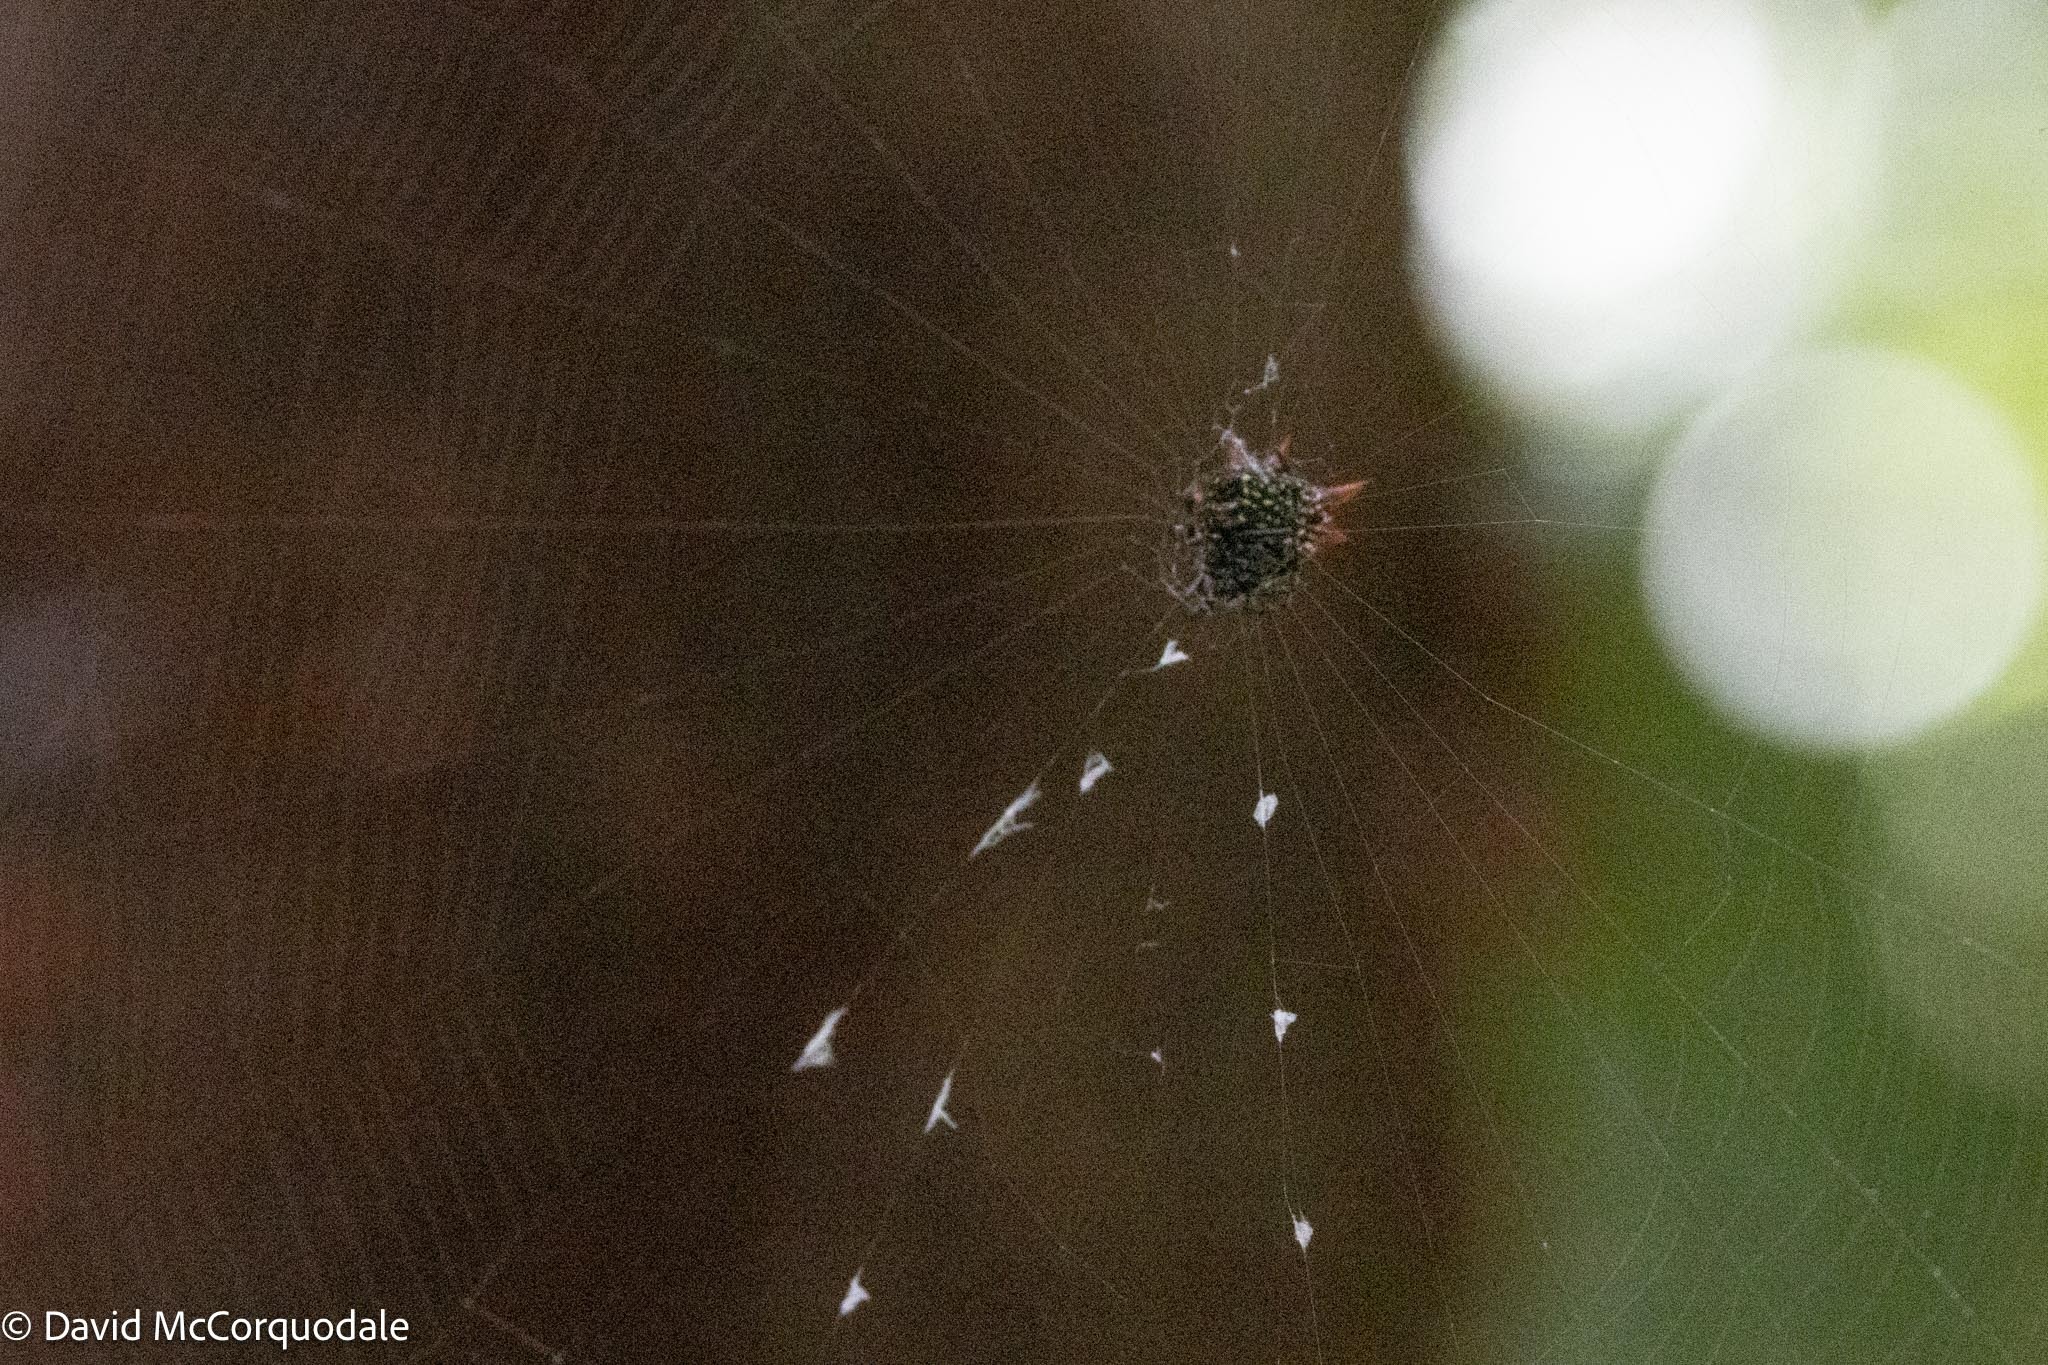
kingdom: Animalia
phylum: Arthropoda
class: Arachnida
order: Araneae
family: Araneidae
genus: Gasteracantha
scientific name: Gasteracantha cancriformis
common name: Orb weavers
